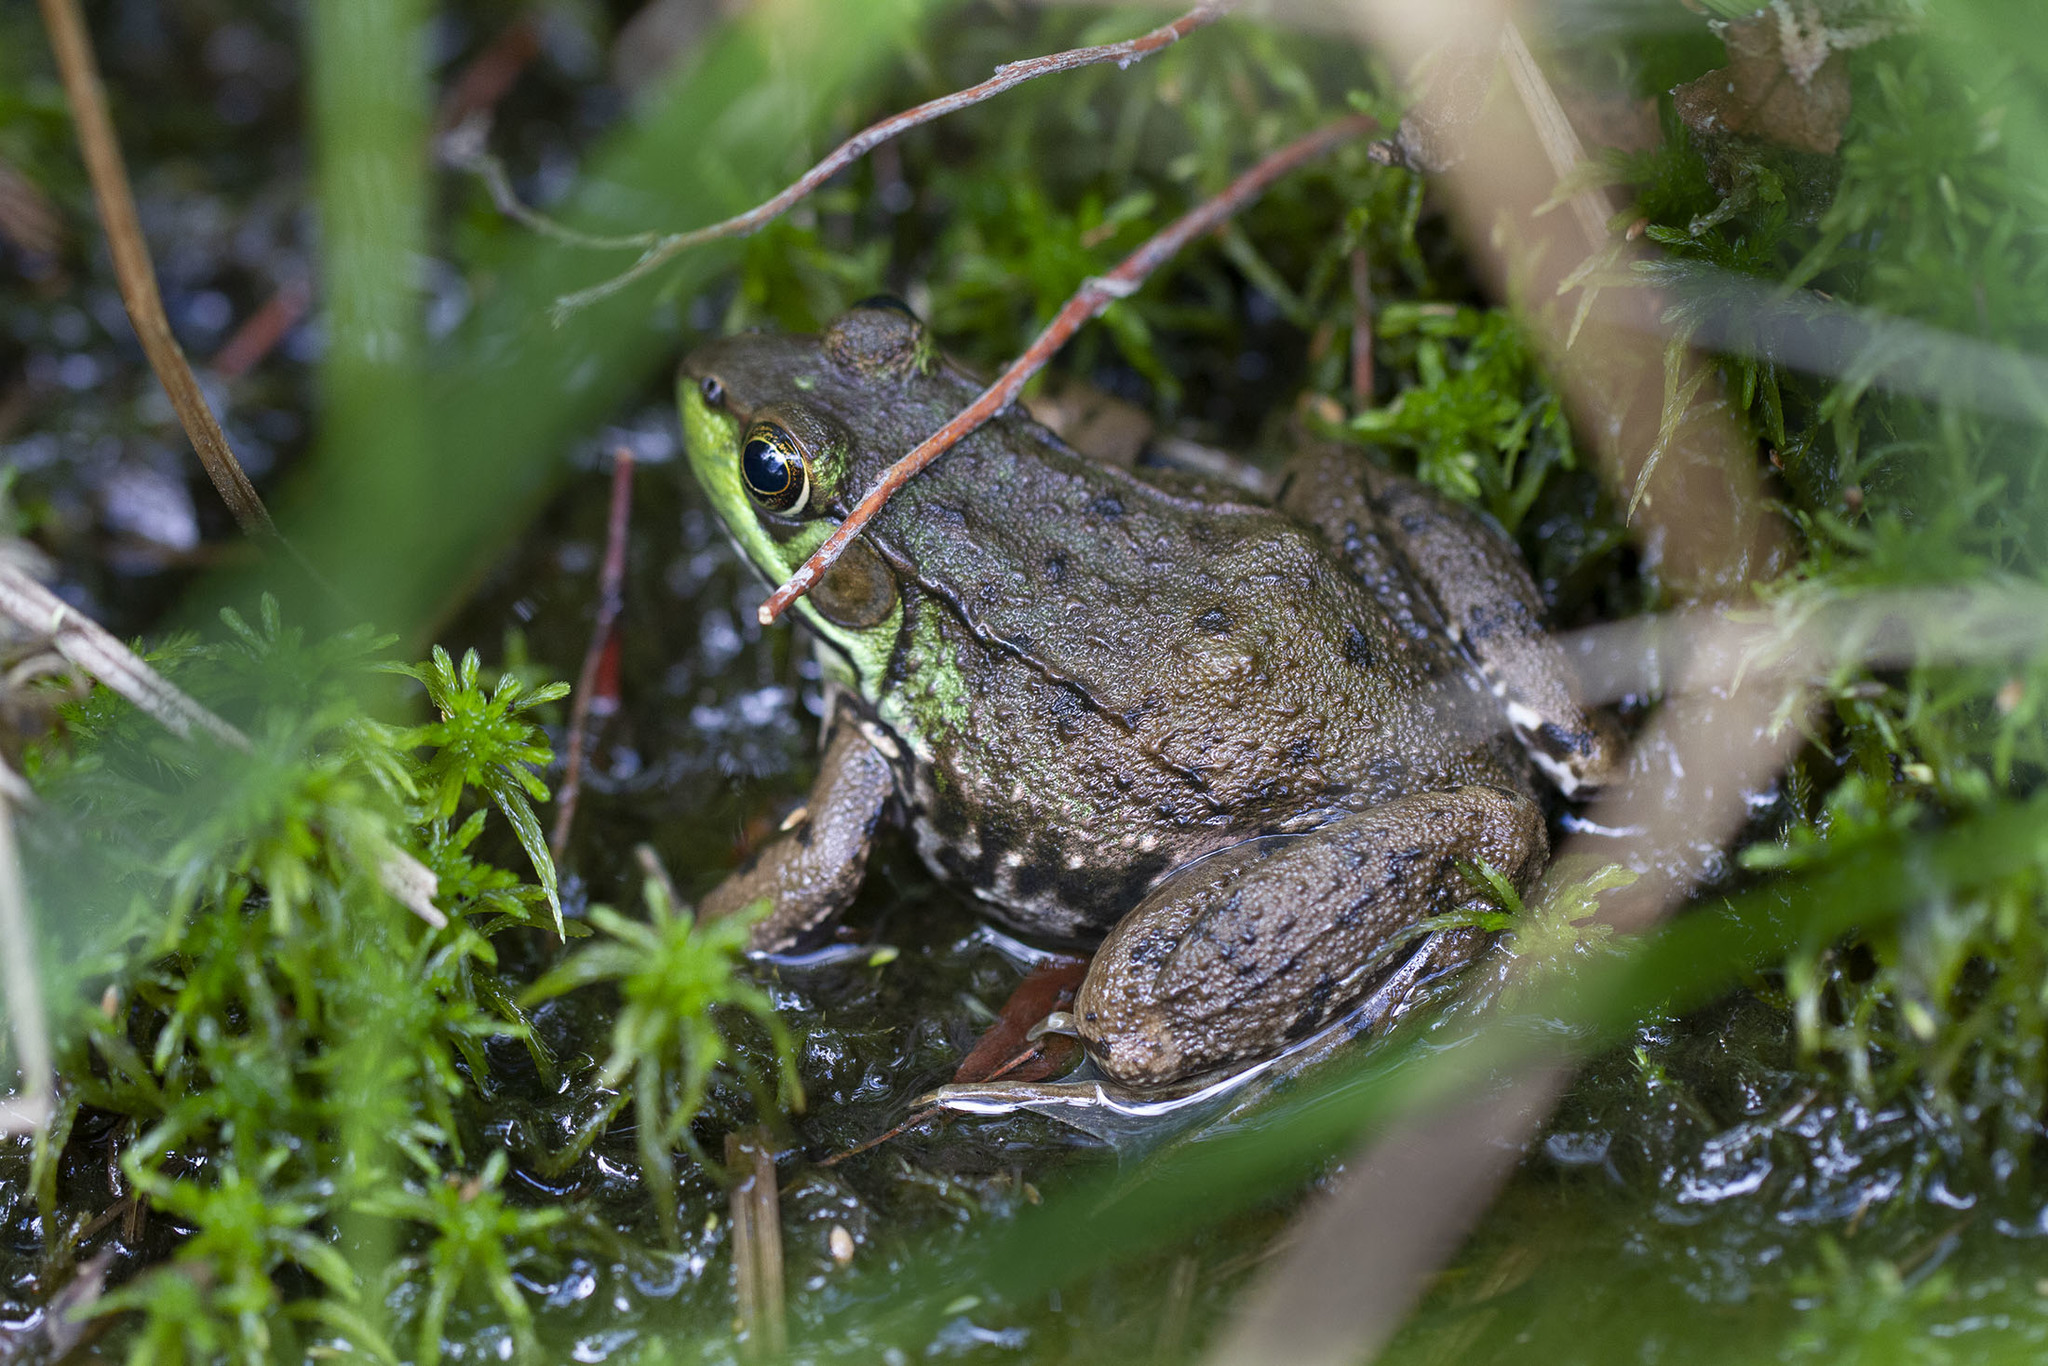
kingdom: Animalia
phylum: Chordata
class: Amphibia
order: Anura
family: Ranidae
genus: Lithobates
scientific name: Lithobates clamitans
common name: Green frog
